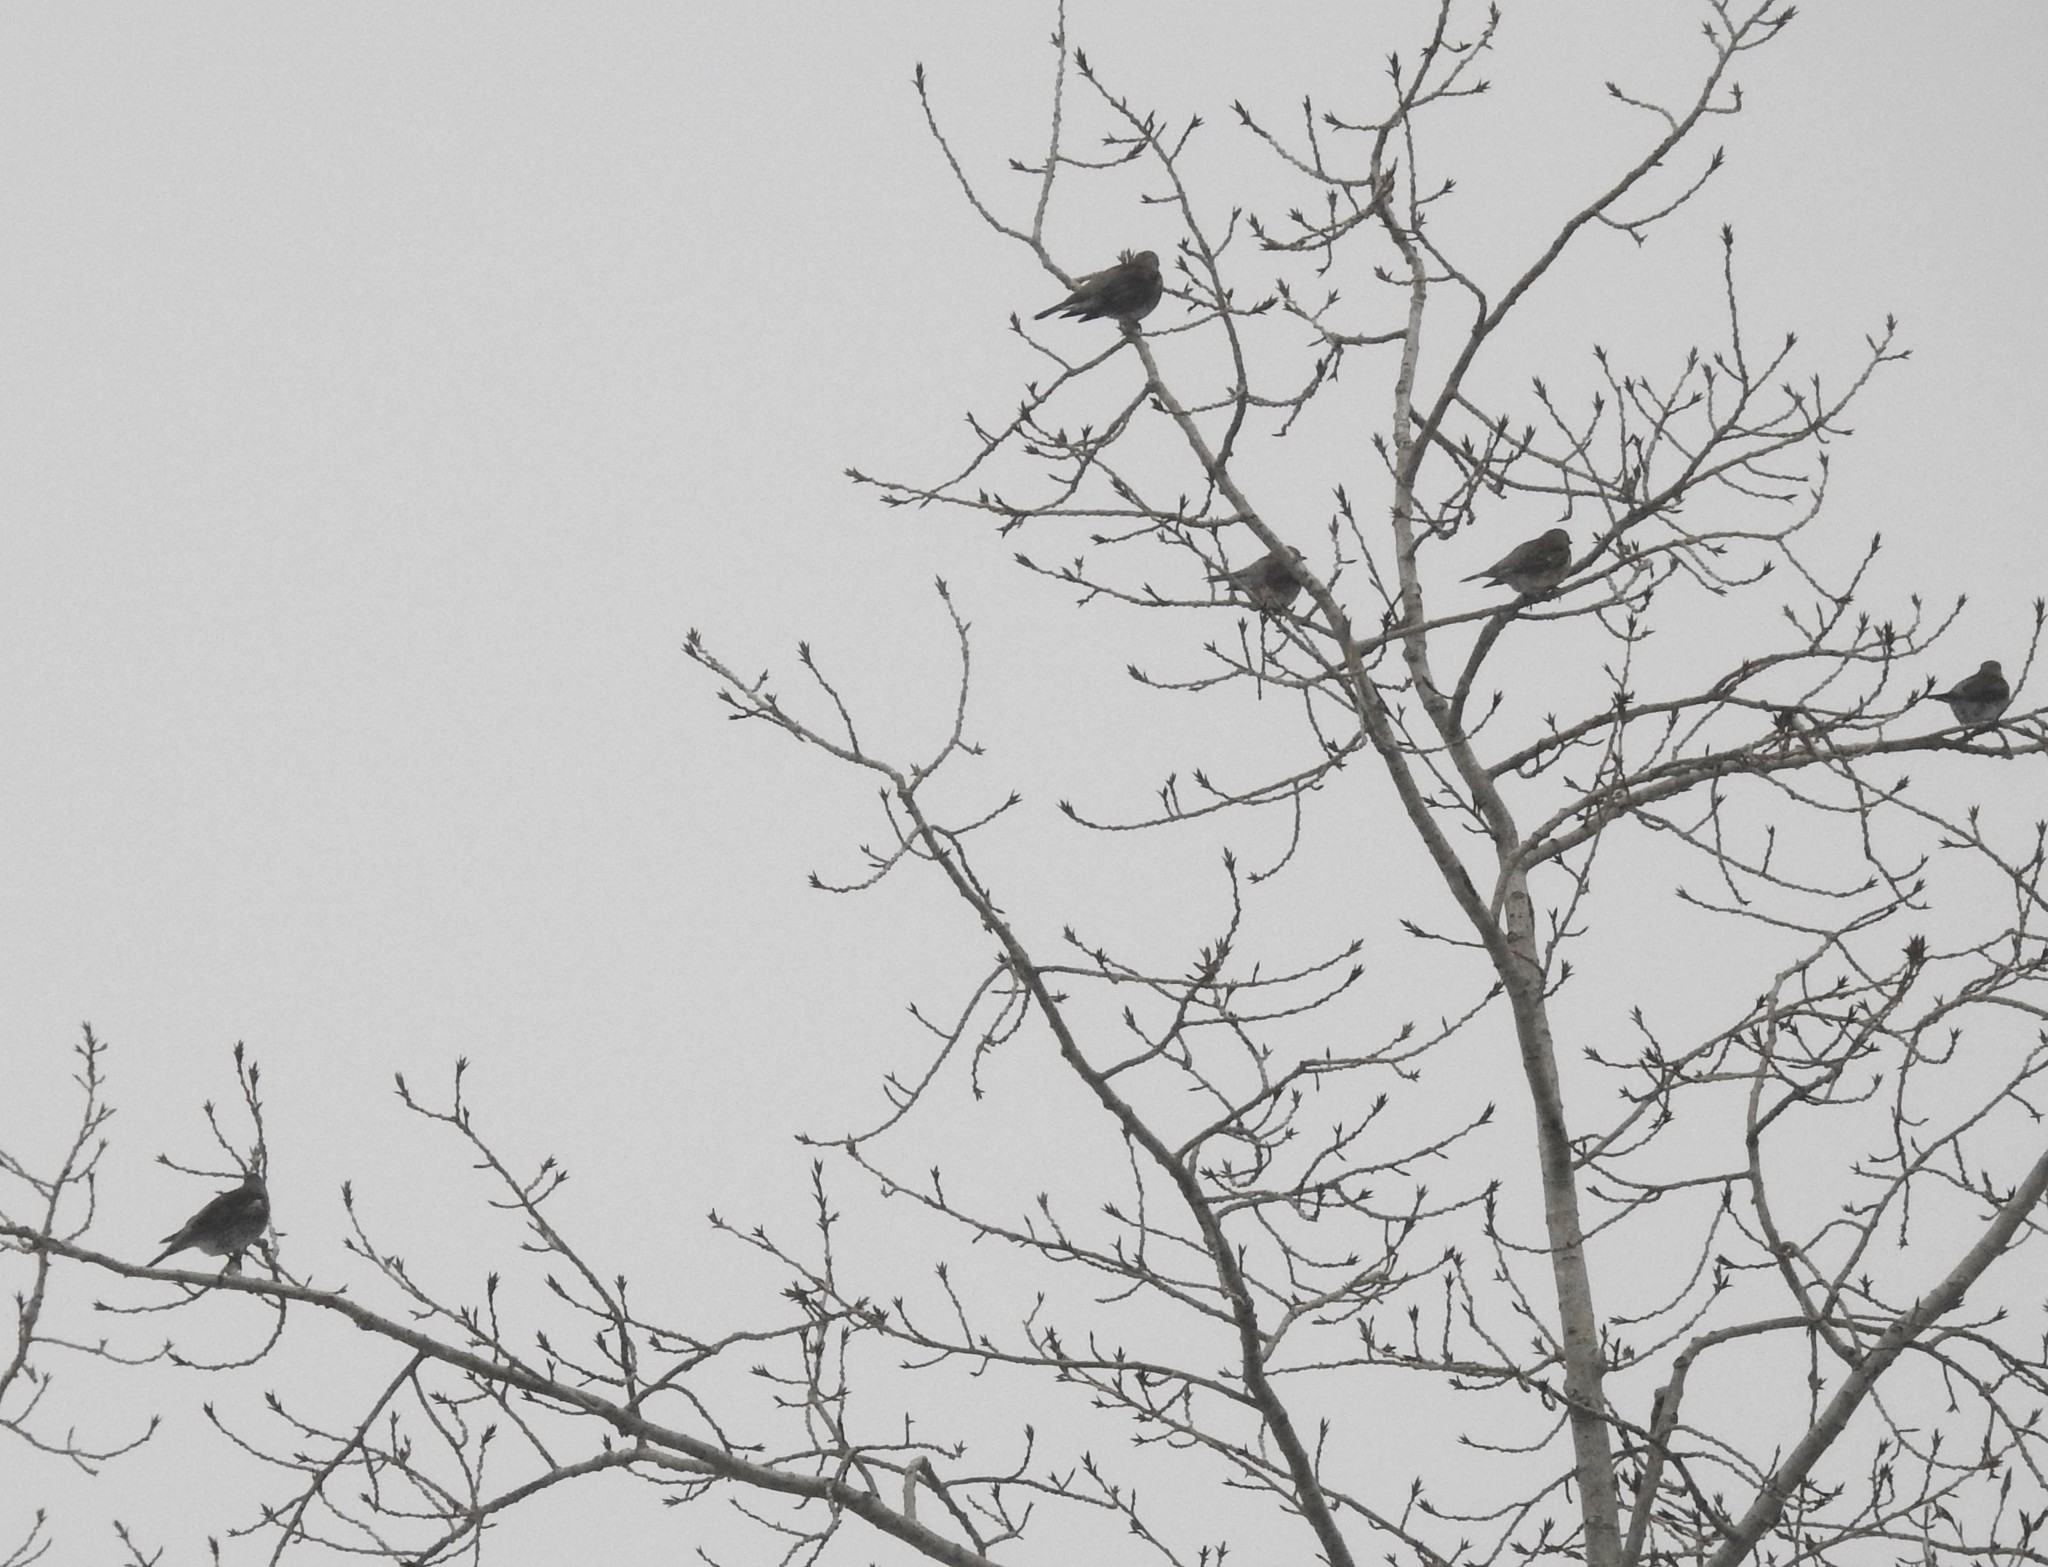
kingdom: Animalia
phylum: Chordata
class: Aves
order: Passeriformes
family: Turdidae
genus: Turdus
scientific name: Turdus pilaris
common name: Fieldfare
